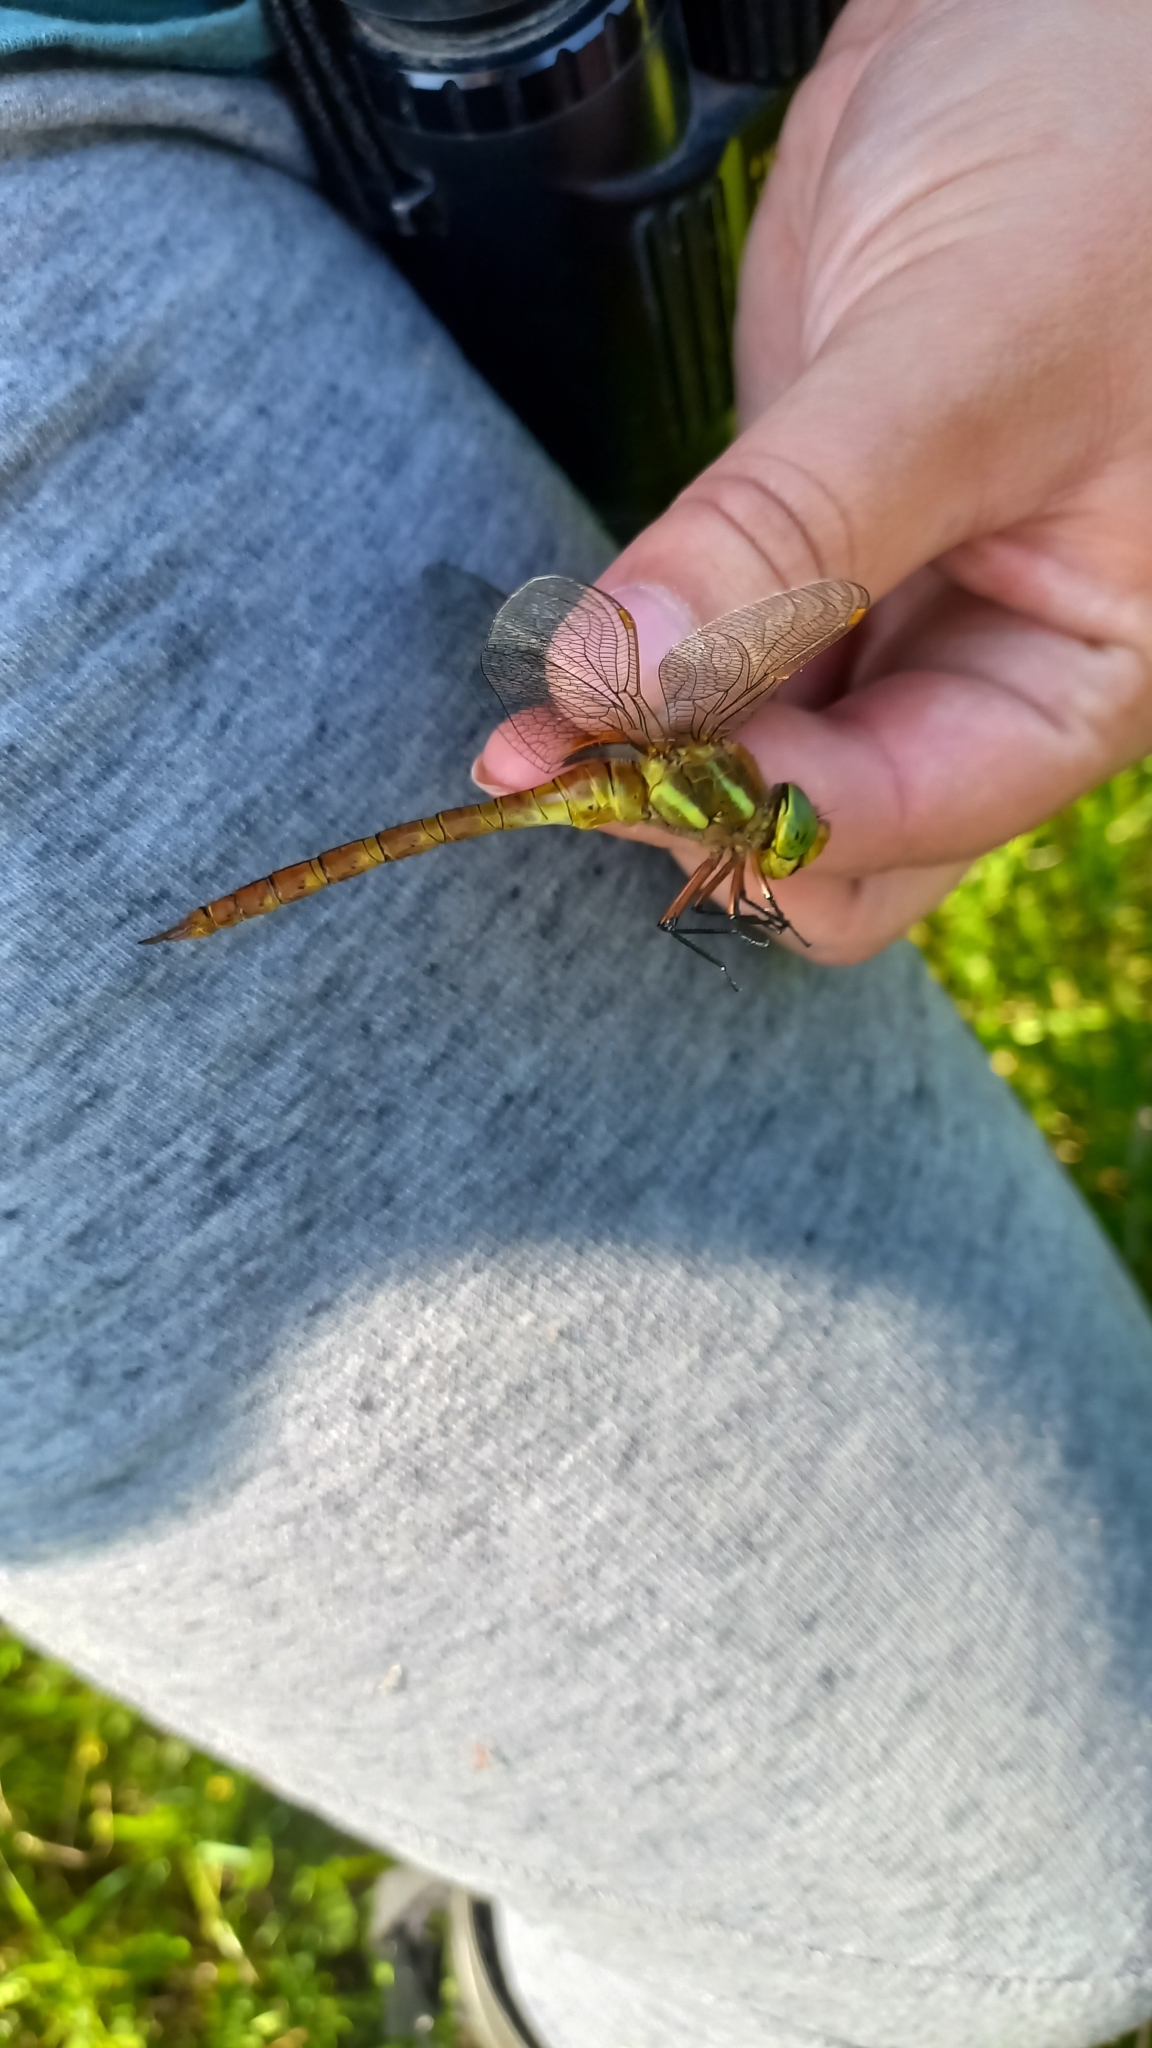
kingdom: Animalia
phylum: Arthropoda
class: Insecta
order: Odonata
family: Aeshnidae
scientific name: Aeshnidae
